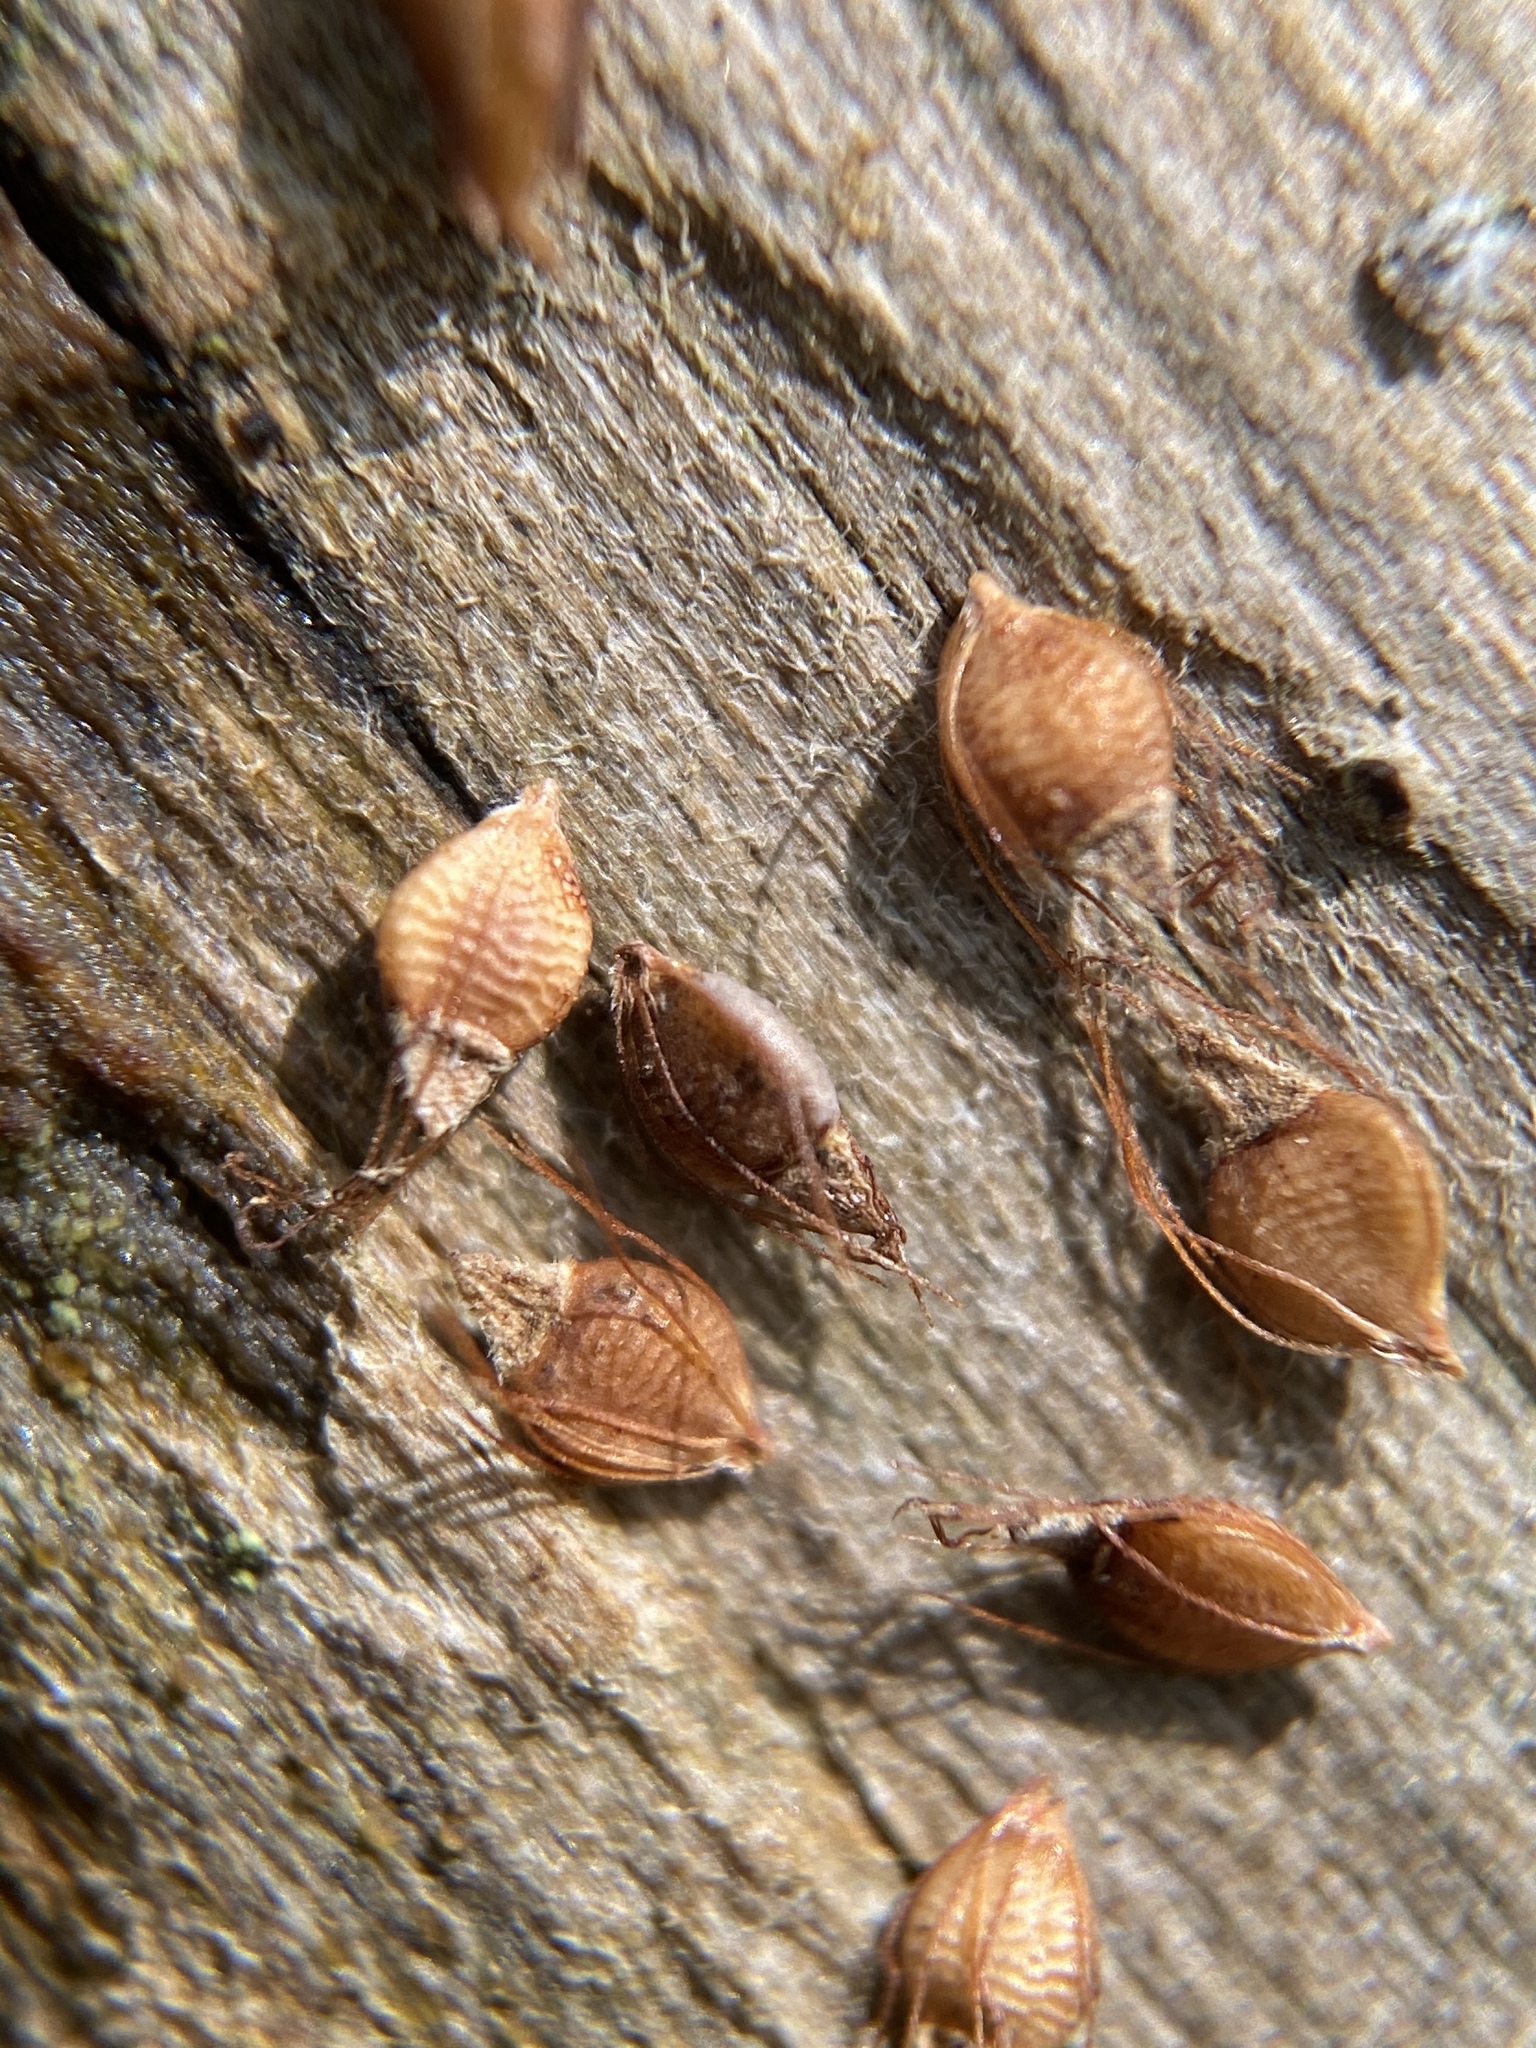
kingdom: Plantae
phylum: Tracheophyta
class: Liliopsida
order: Poales
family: Cyperaceae
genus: Rhynchospora
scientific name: Rhynchospora caduca
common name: Anglestem beaksedge
